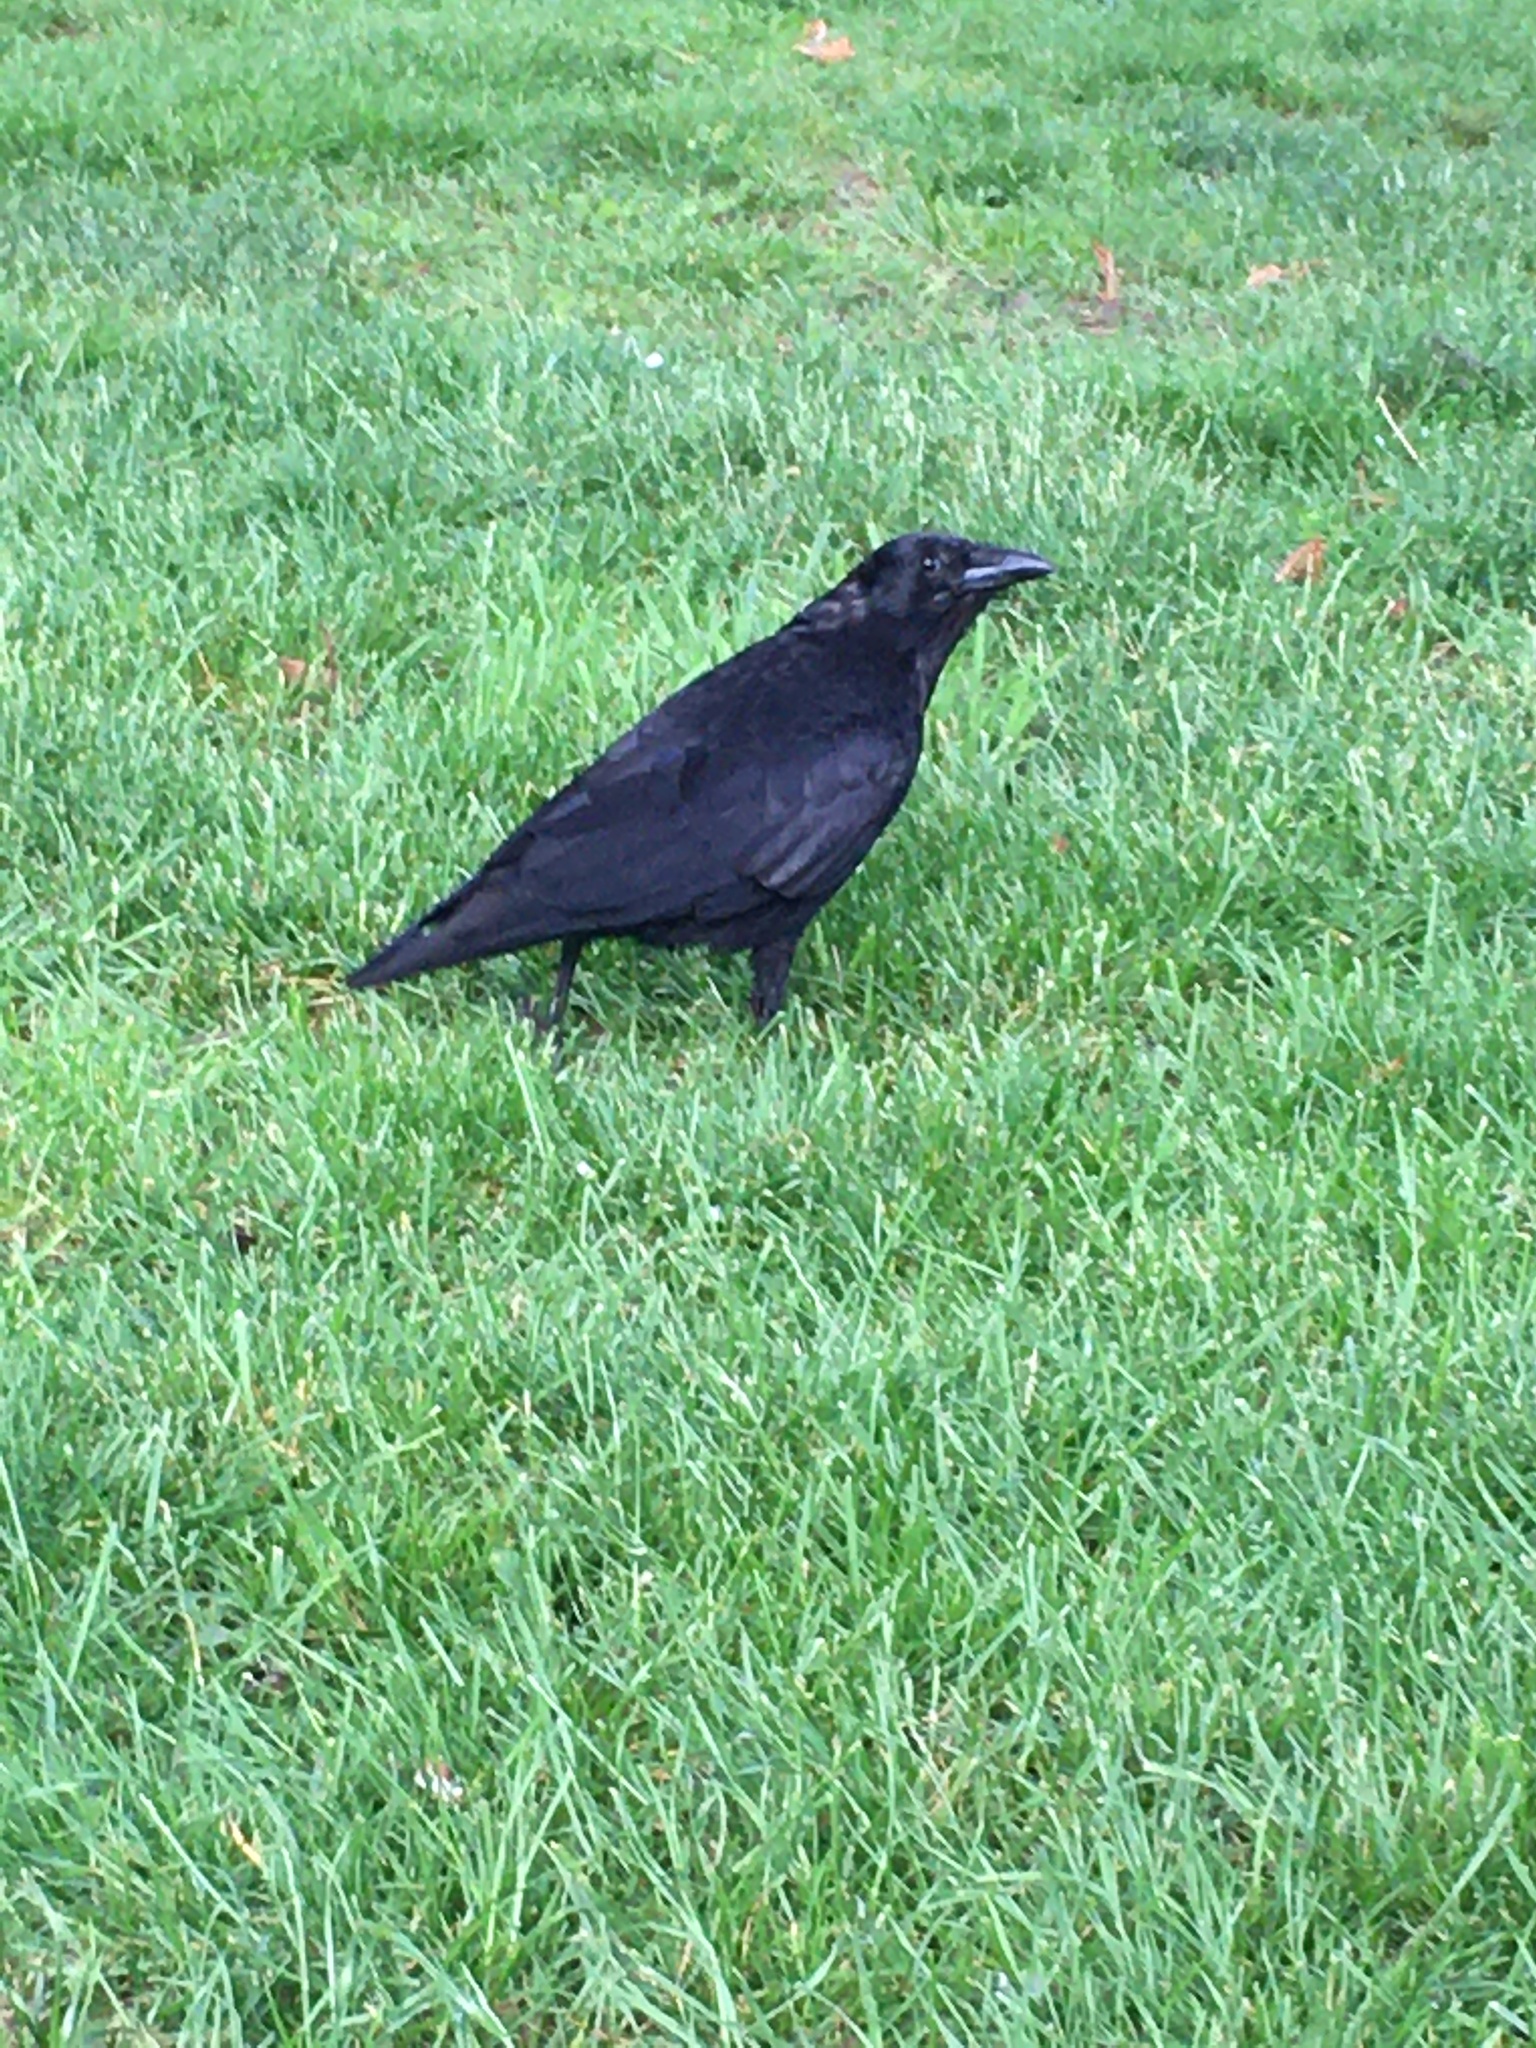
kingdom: Animalia
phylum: Chordata
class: Aves
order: Passeriformes
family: Corvidae
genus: Corvus
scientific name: Corvus brachyrhynchos
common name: American crow
